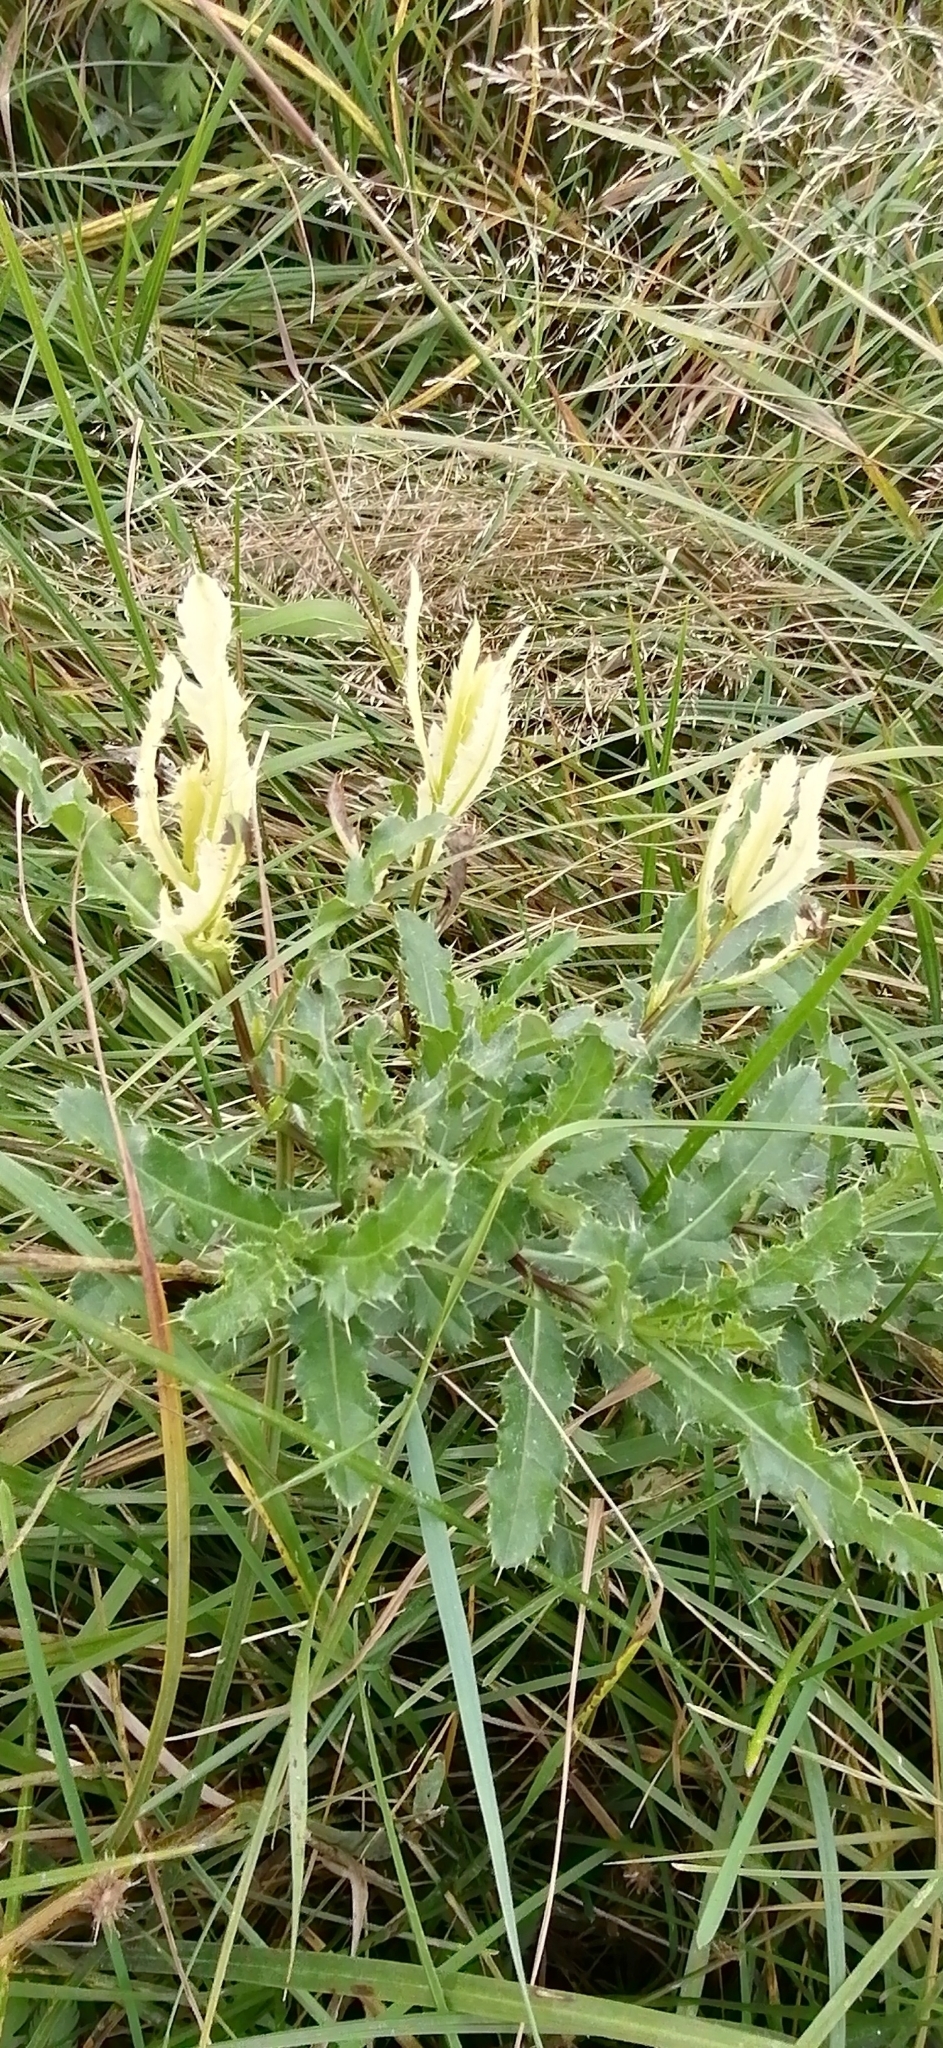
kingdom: Plantae
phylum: Tracheophyta
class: Magnoliopsida
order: Asterales
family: Asteraceae
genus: Cirsium
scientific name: Cirsium arvense
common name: Creeping thistle
